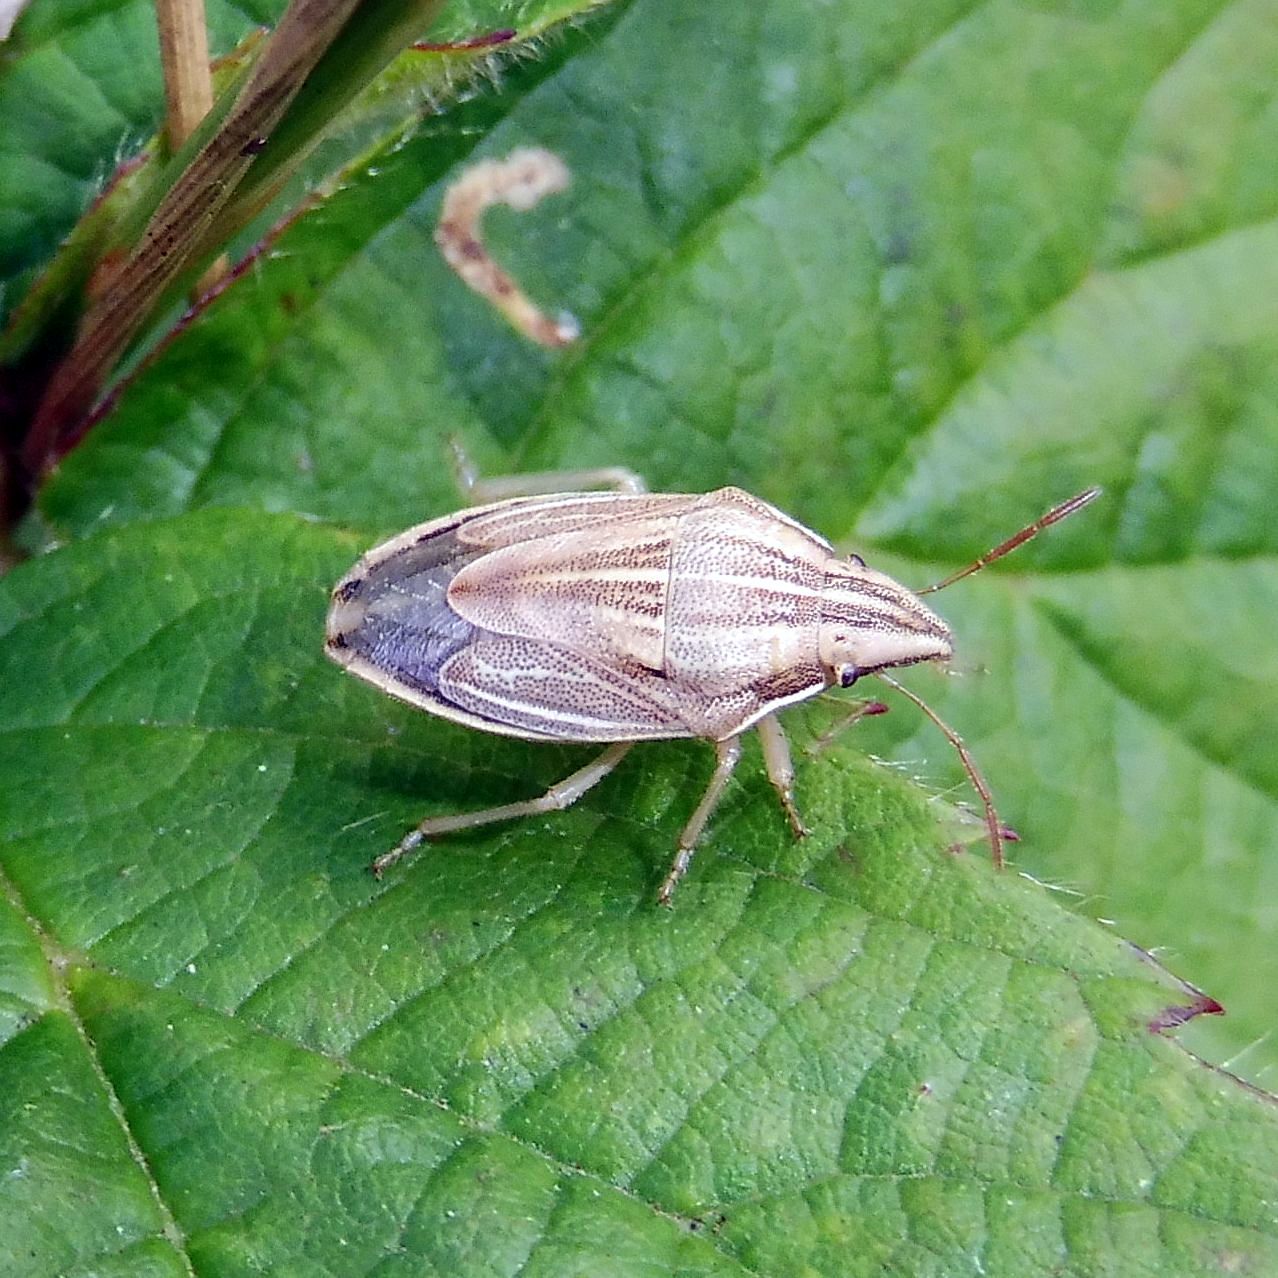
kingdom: Animalia
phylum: Arthropoda
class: Insecta
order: Hemiptera
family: Pentatomidae
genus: Aelia
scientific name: Aelia acuminata
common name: Bishop's mitre
